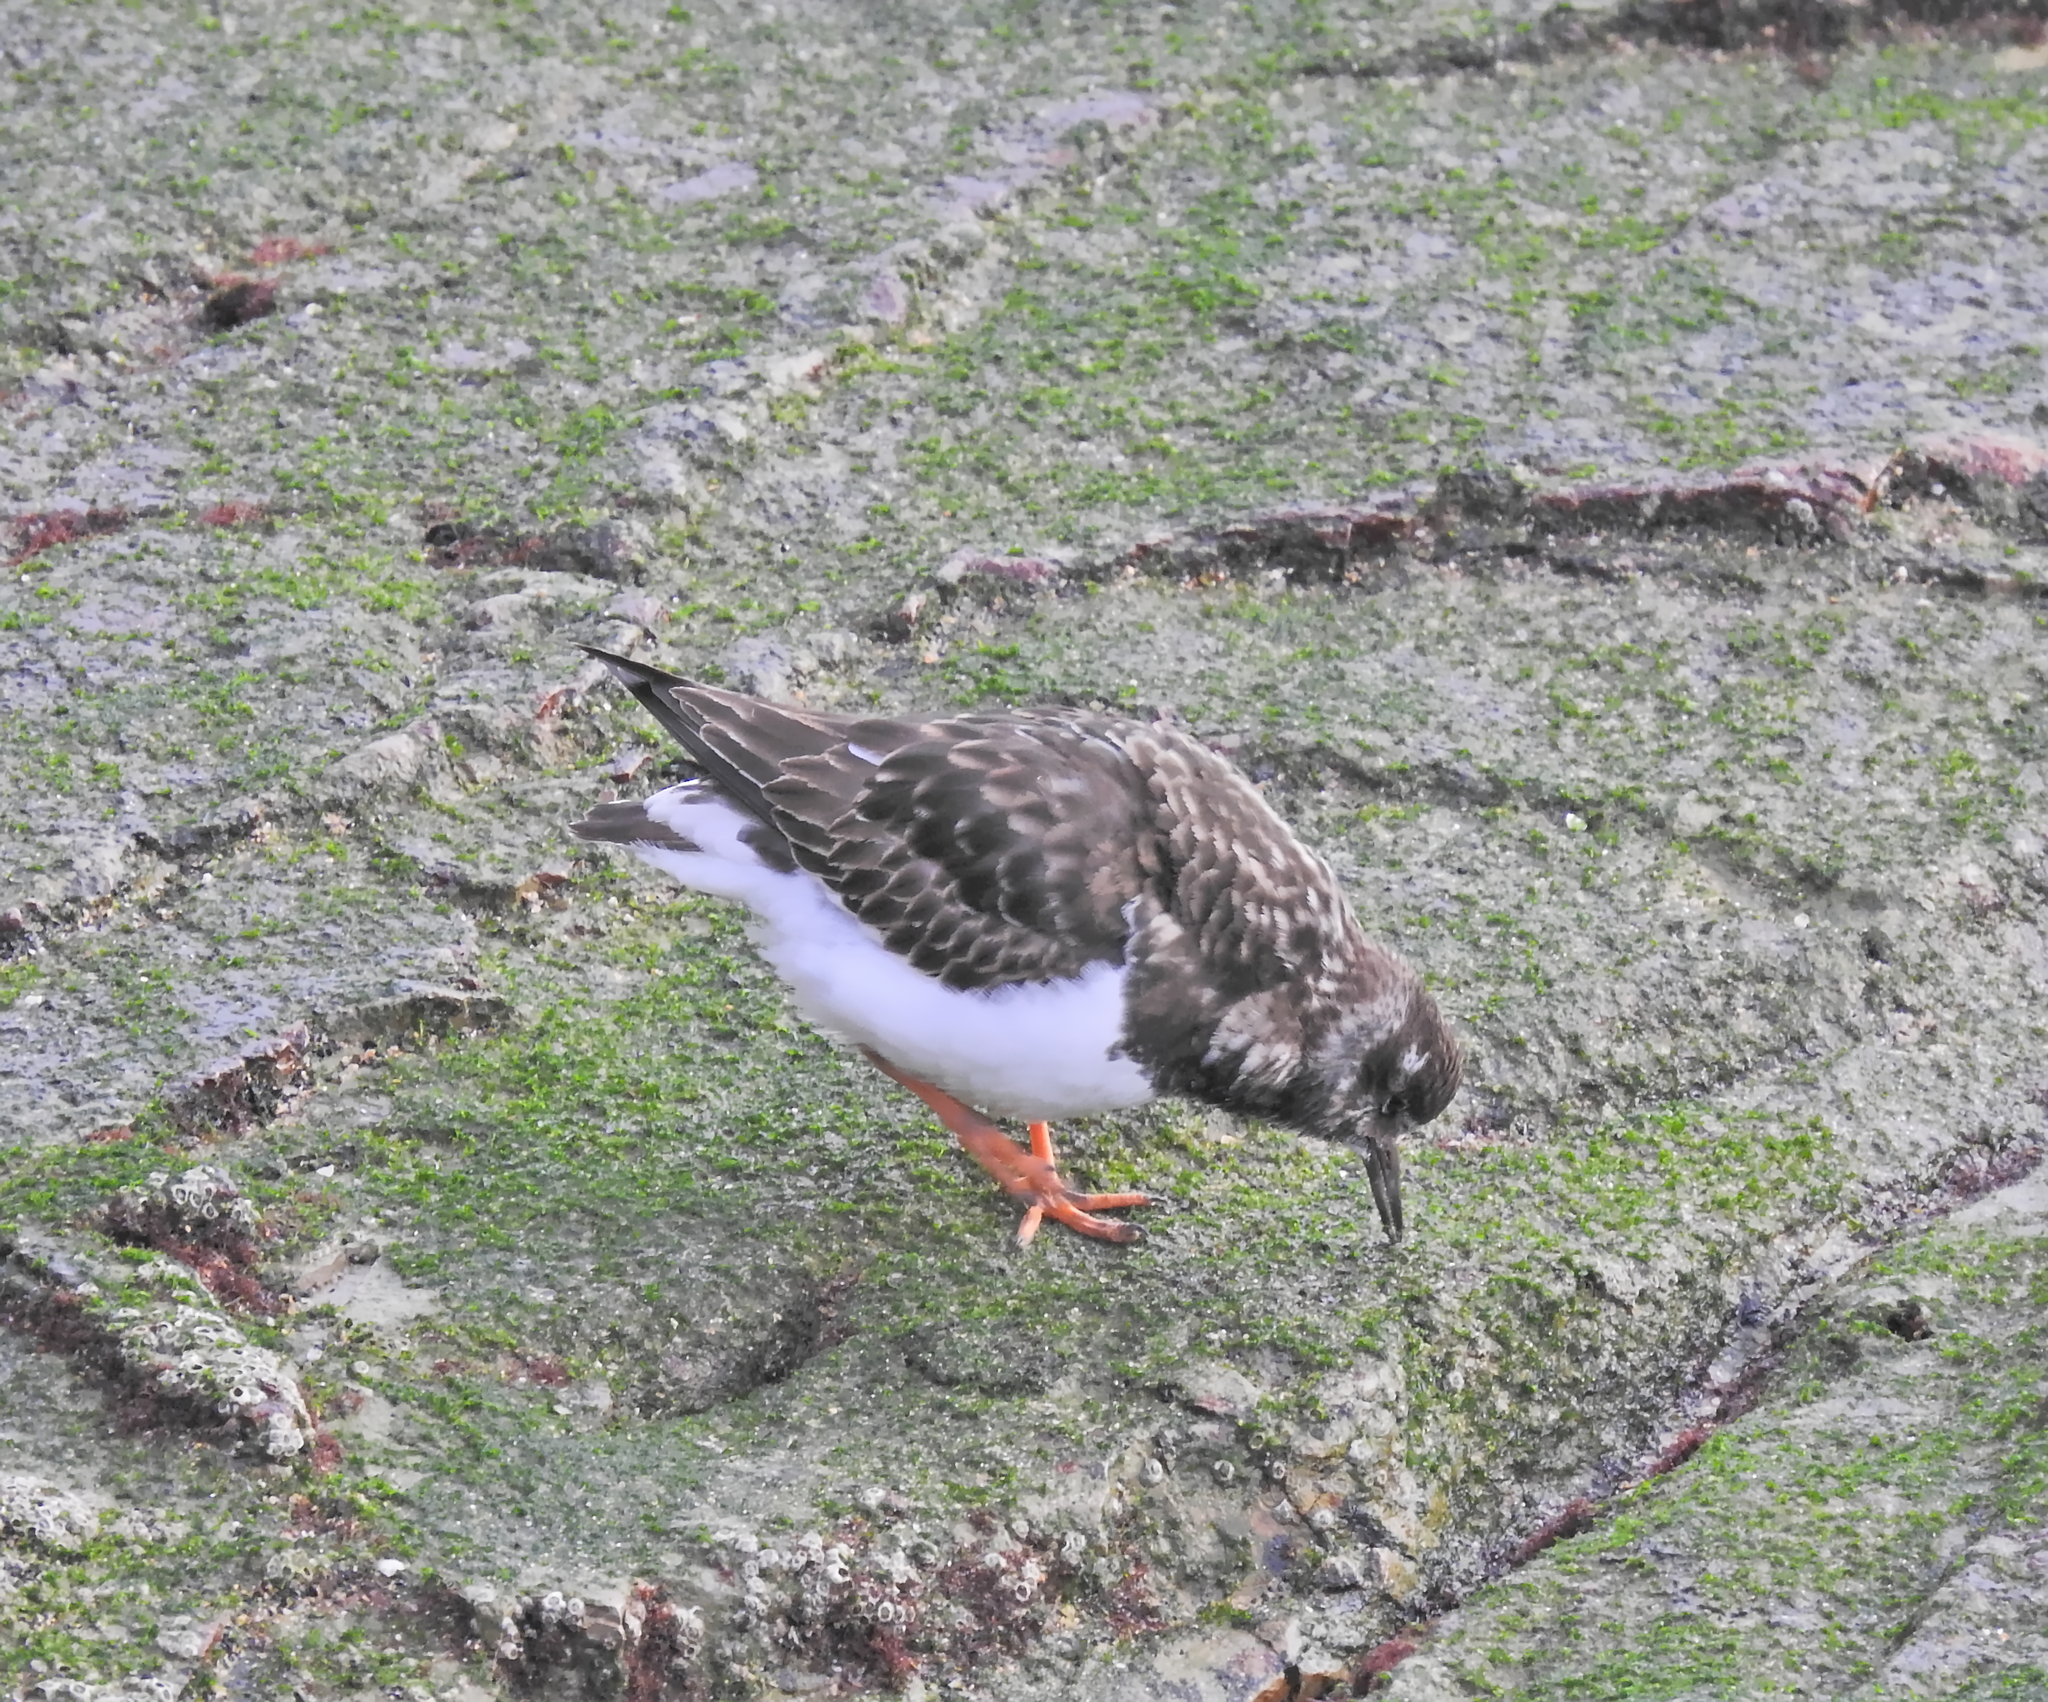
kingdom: Animalia
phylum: Chordata
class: Aves
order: Charadriiformes
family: Scolopacidae
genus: Arenaria
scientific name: Arenaria interpres
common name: Ruddy turnstone
